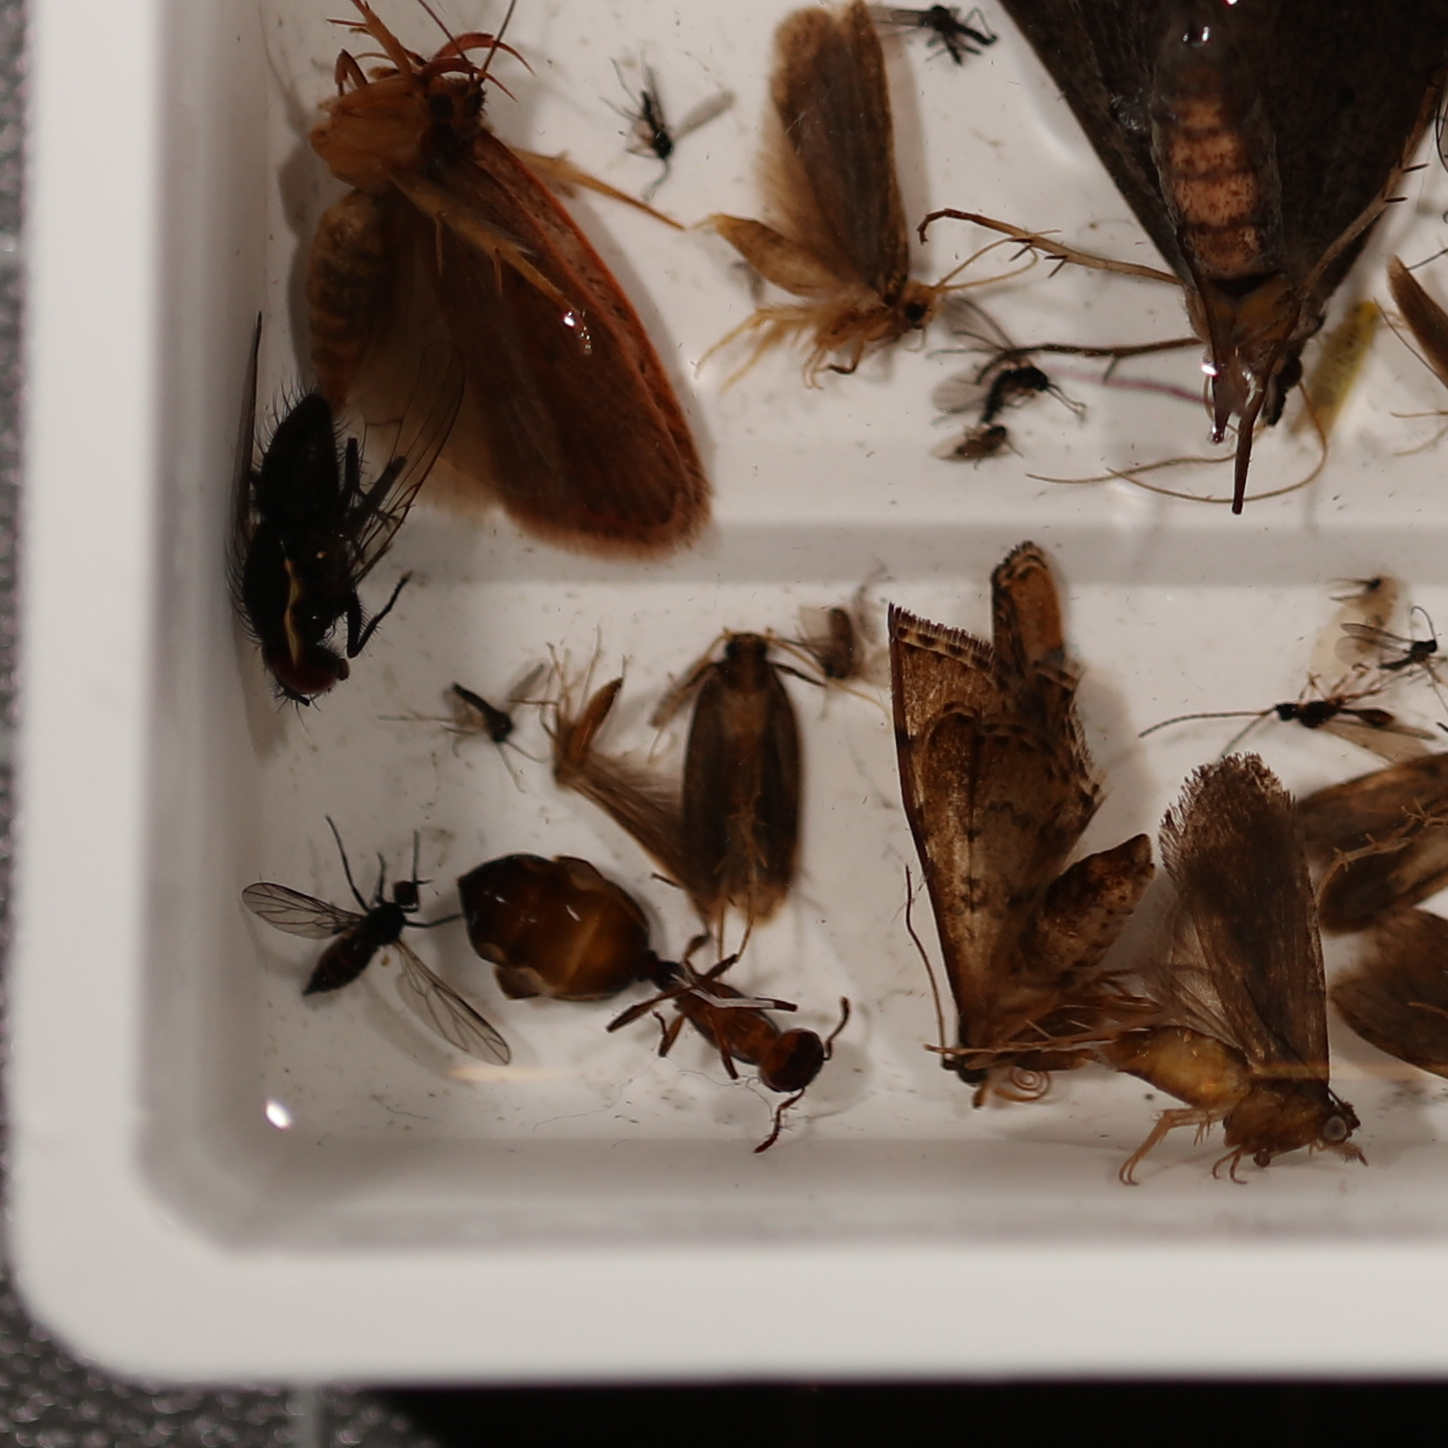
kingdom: Animalia
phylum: Arthropoda
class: Insecta
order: Lepidoptera
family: Crambidae
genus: Nacoleia
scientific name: Nacoleia rhoeoalis
